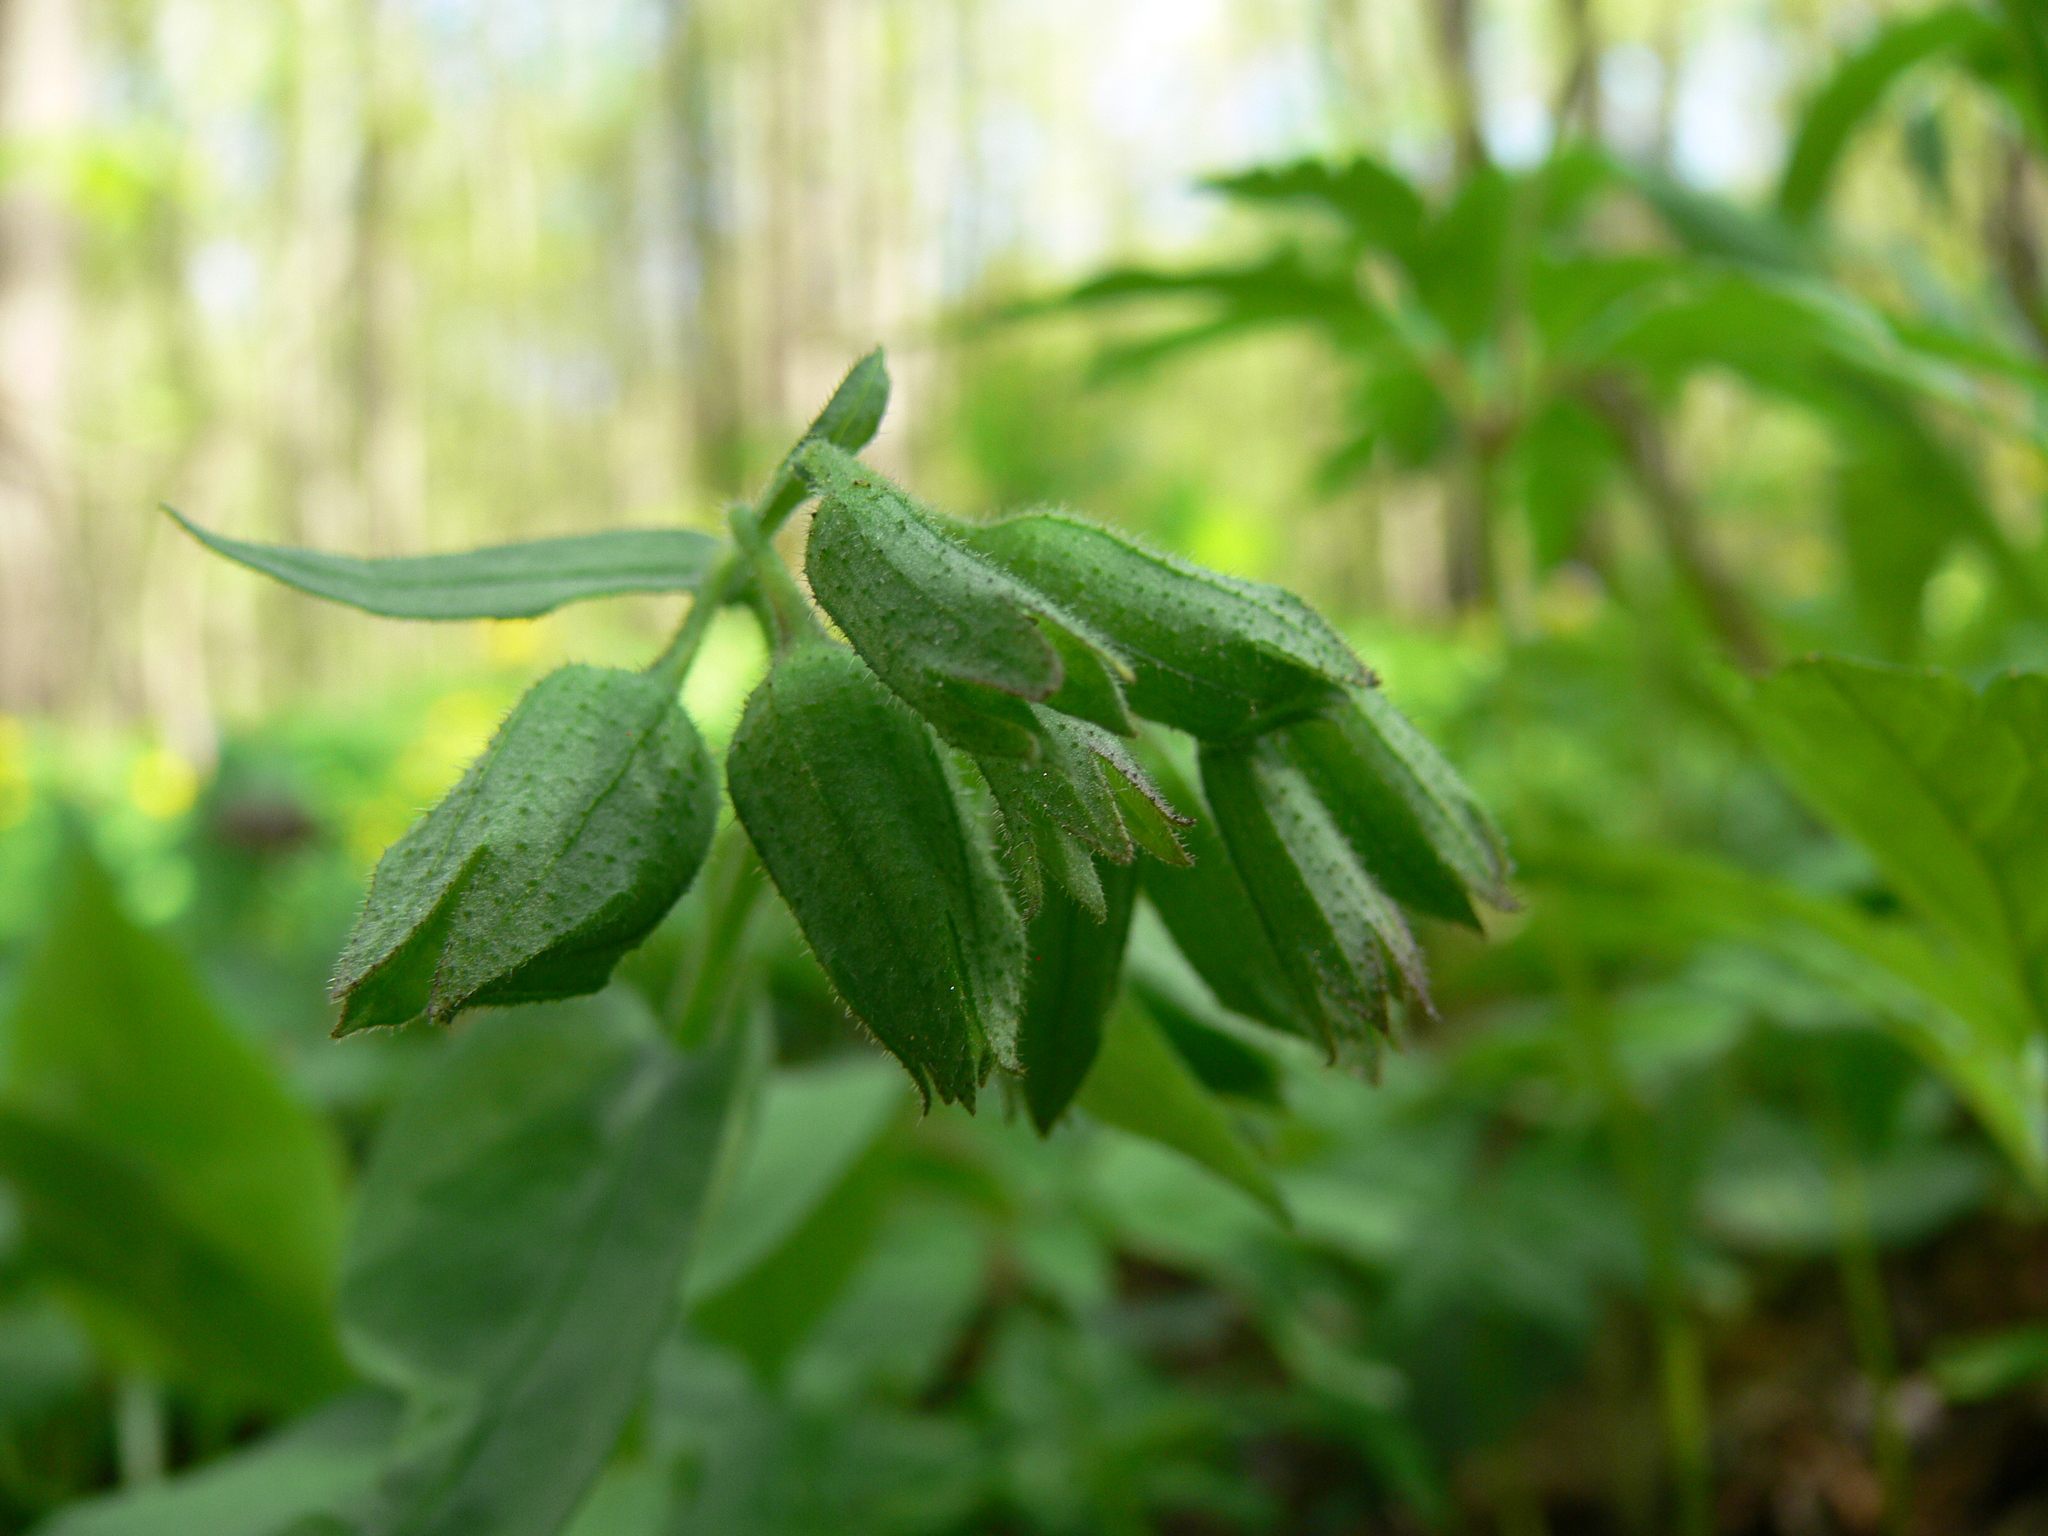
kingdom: Plantae
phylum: Tracheophyta
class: Magnoliopsida
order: Boraginales
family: Boraginaceae
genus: Pulmonaria
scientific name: Pulmonaria obscura
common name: Suffolk lungwort
